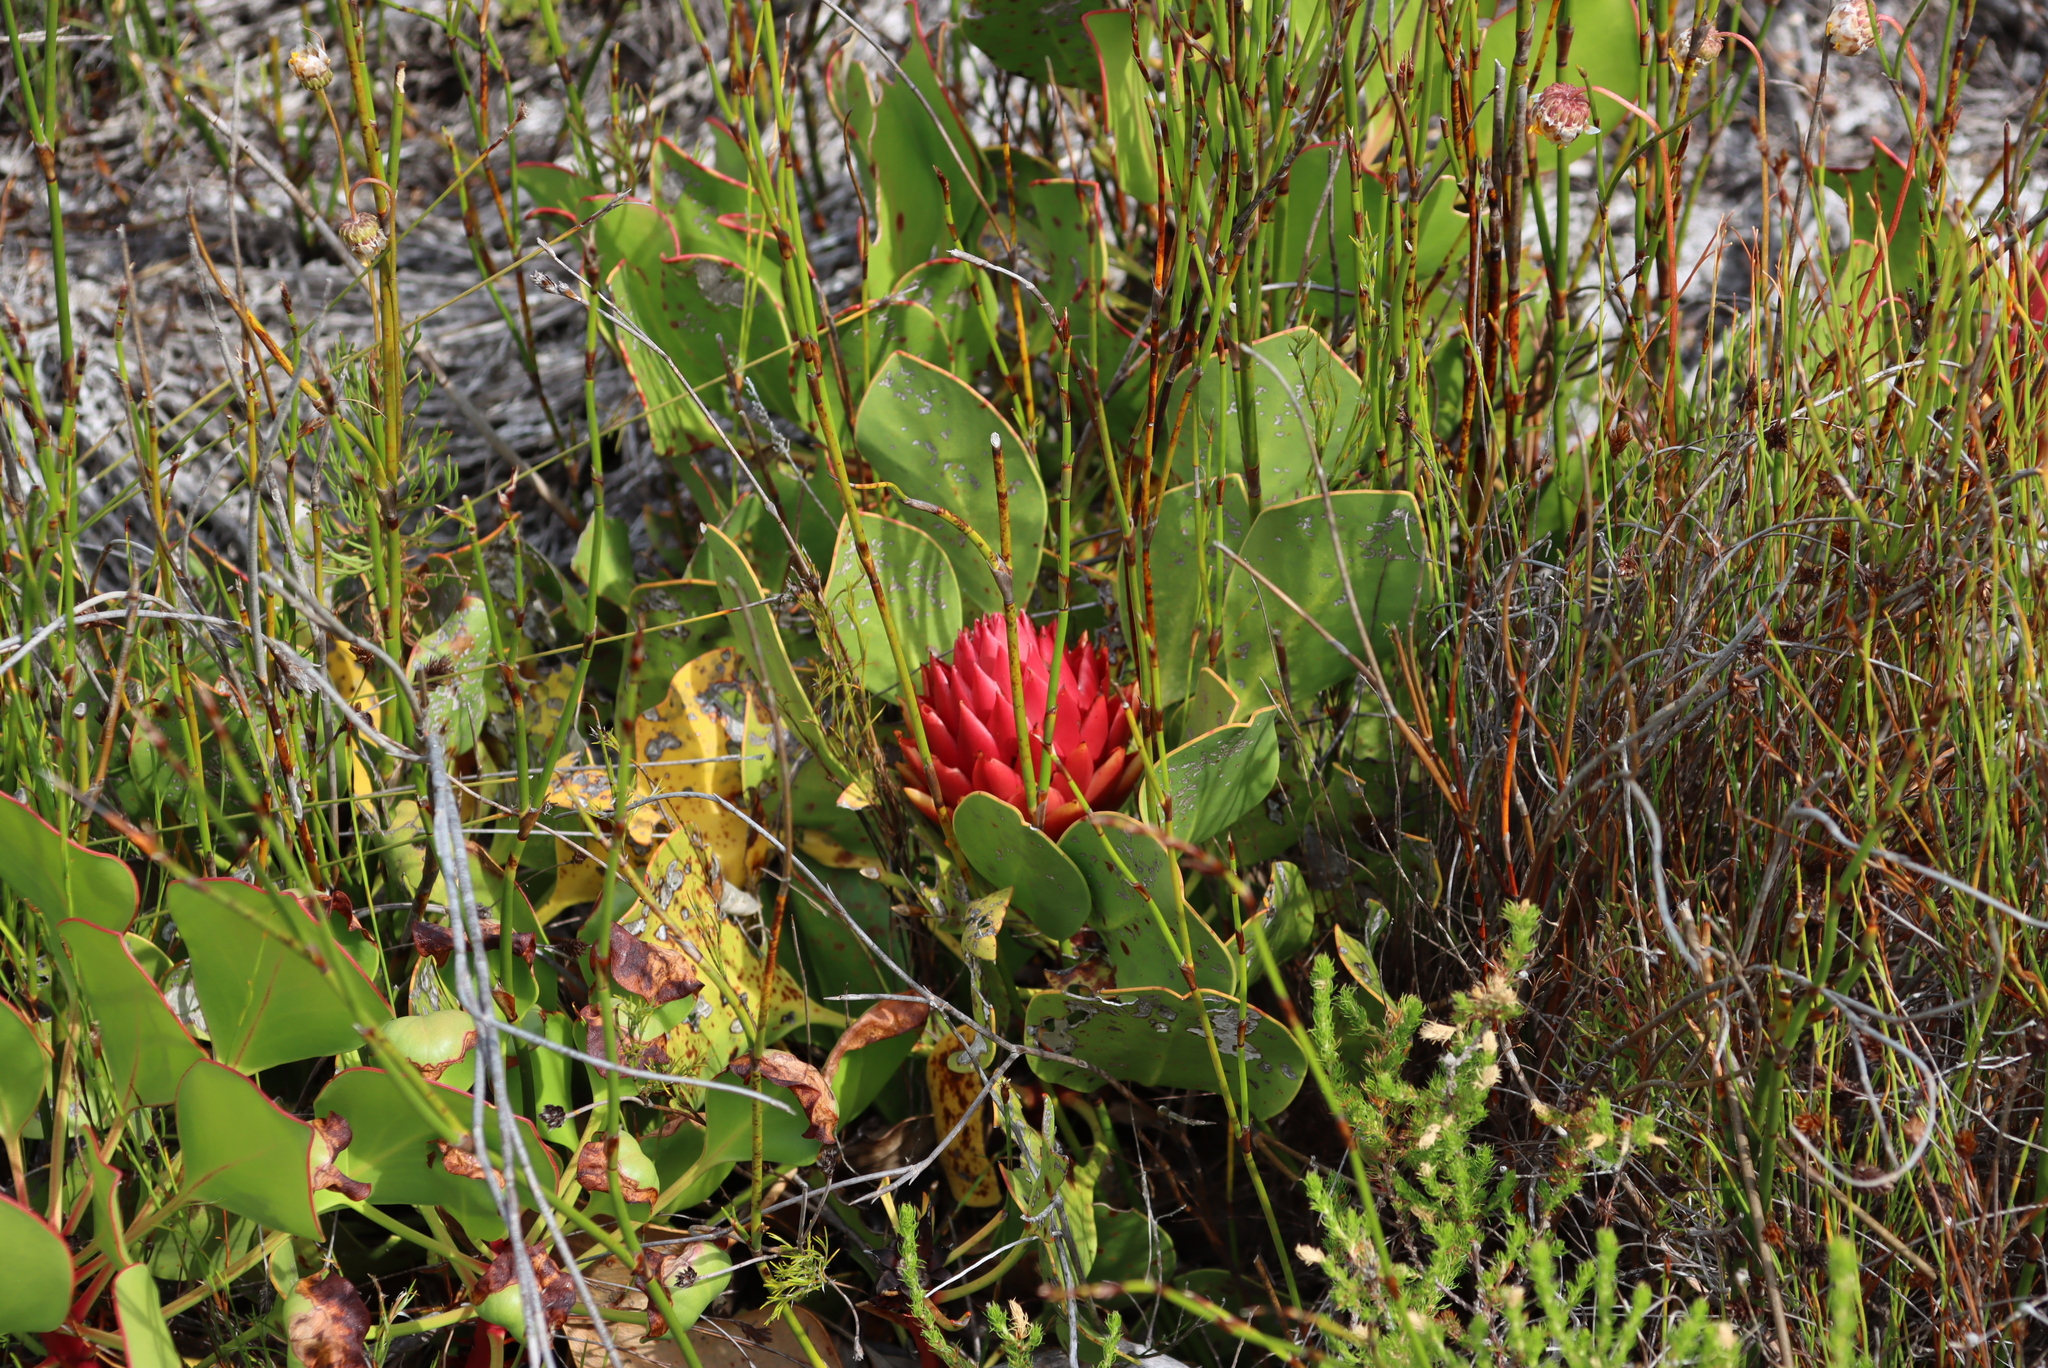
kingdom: Plantae
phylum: Tracheophyta
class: Magnoliopsida
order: Proteales
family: Proteaceae
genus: Protea
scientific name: Protea cynaroides
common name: King protea
